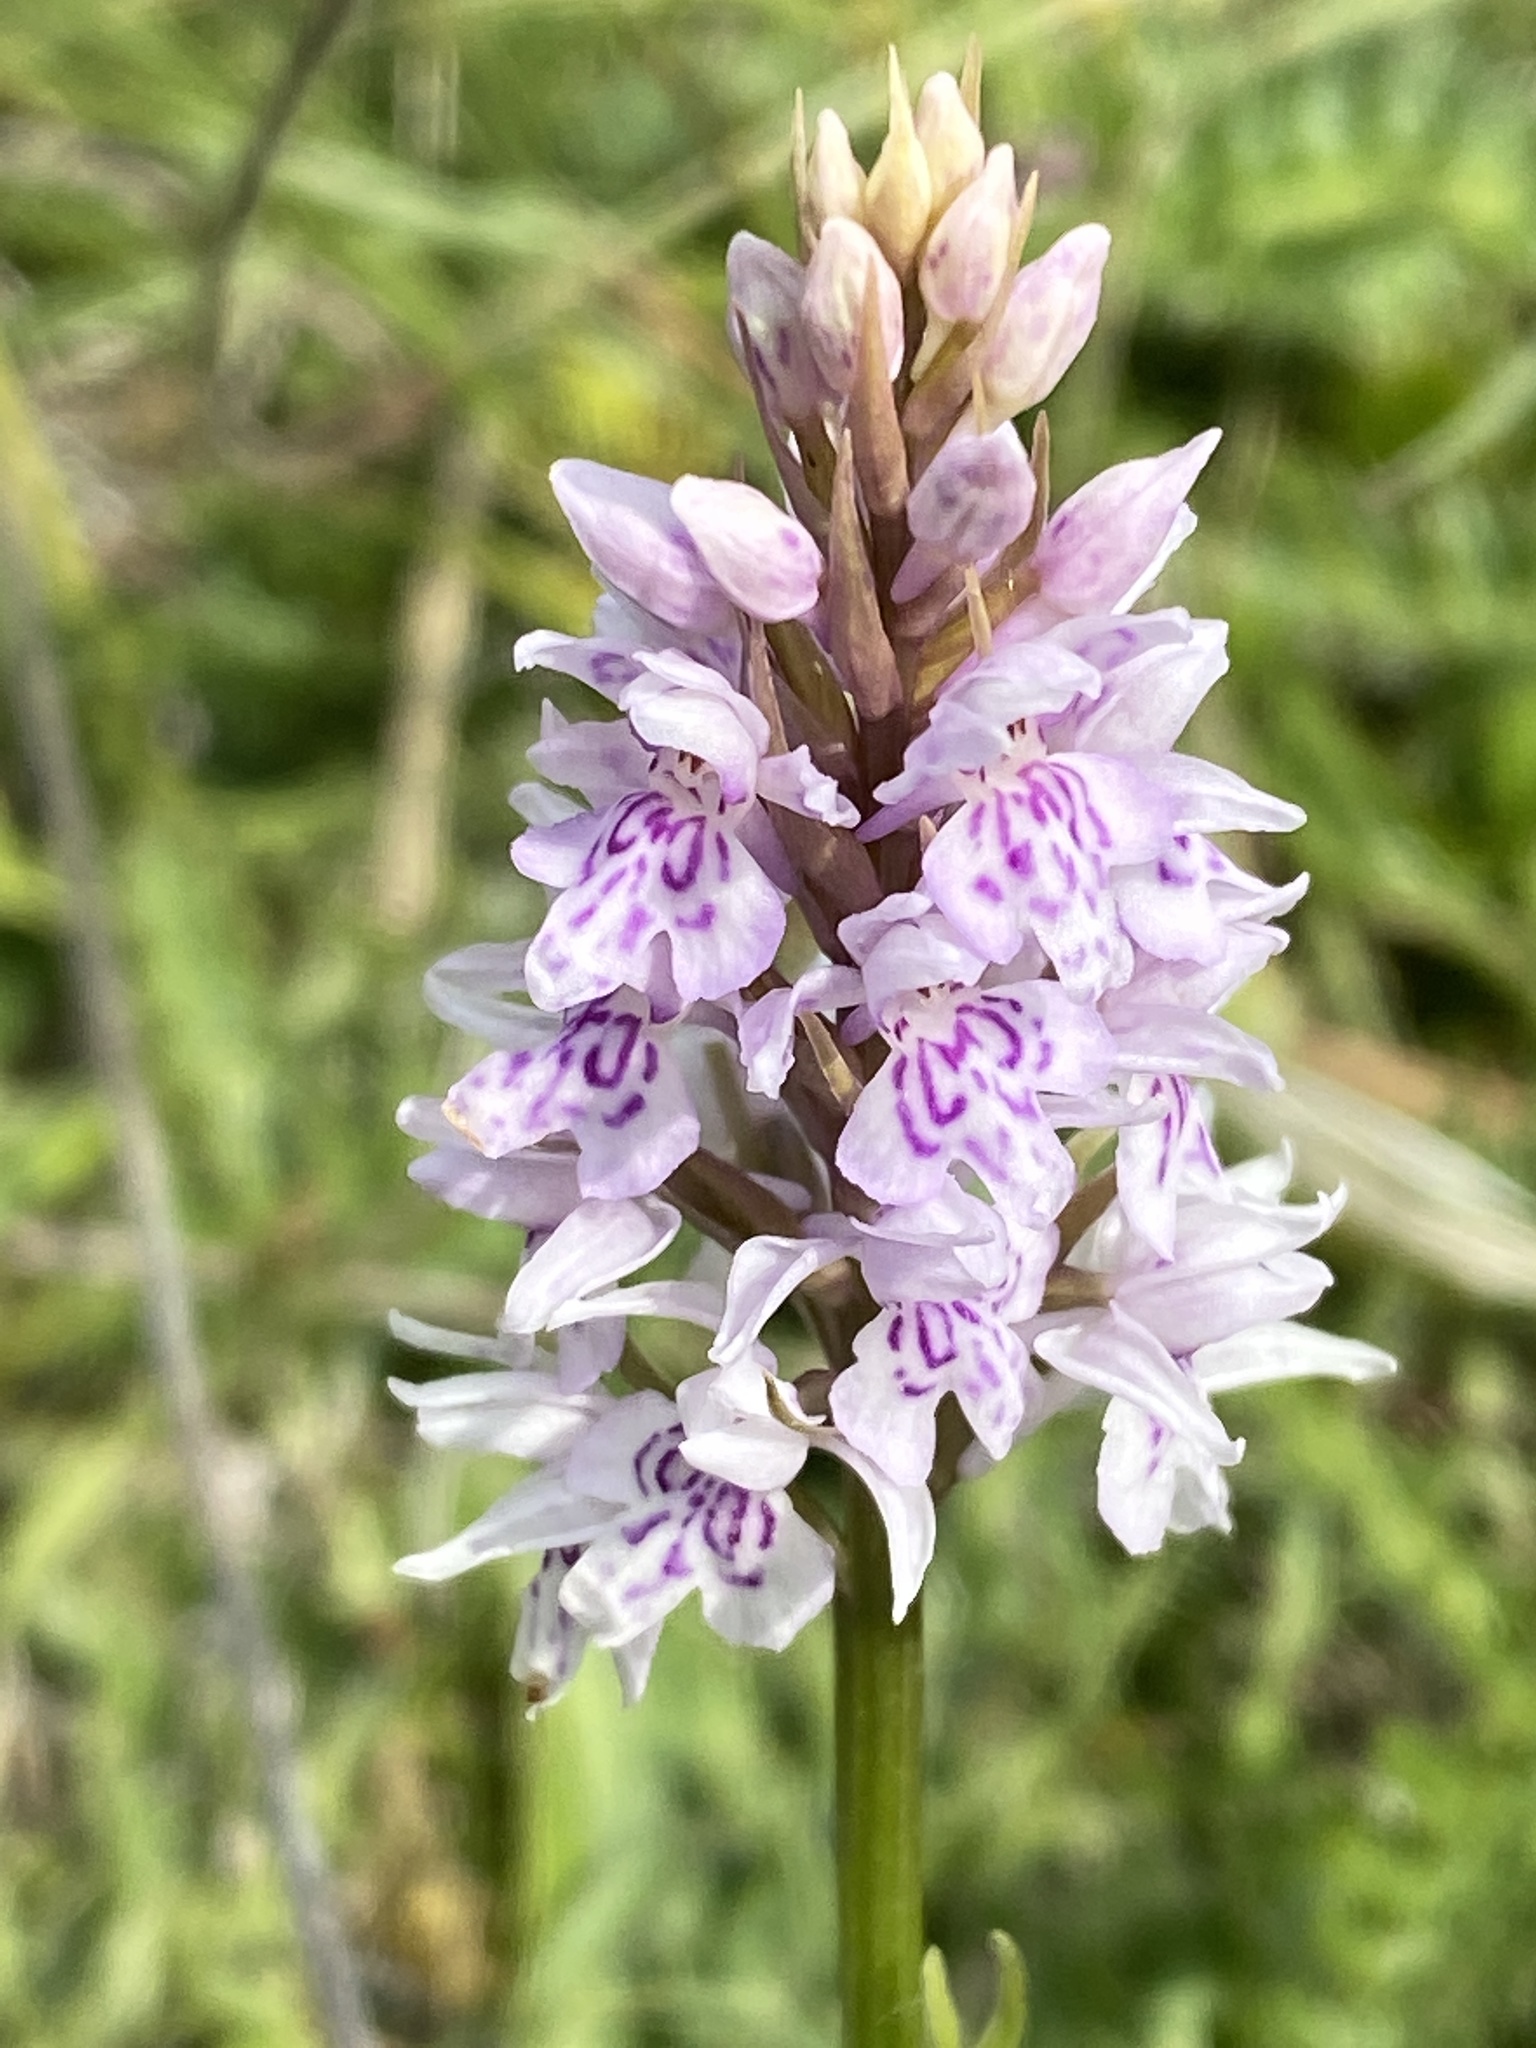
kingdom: Plantae
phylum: Tracheophyta
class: Liliopsida
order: Asparagales
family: Orchidaceae
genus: Dactylorhiza
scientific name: Dactylorhiza maculata
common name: Heath spotted-orchid
